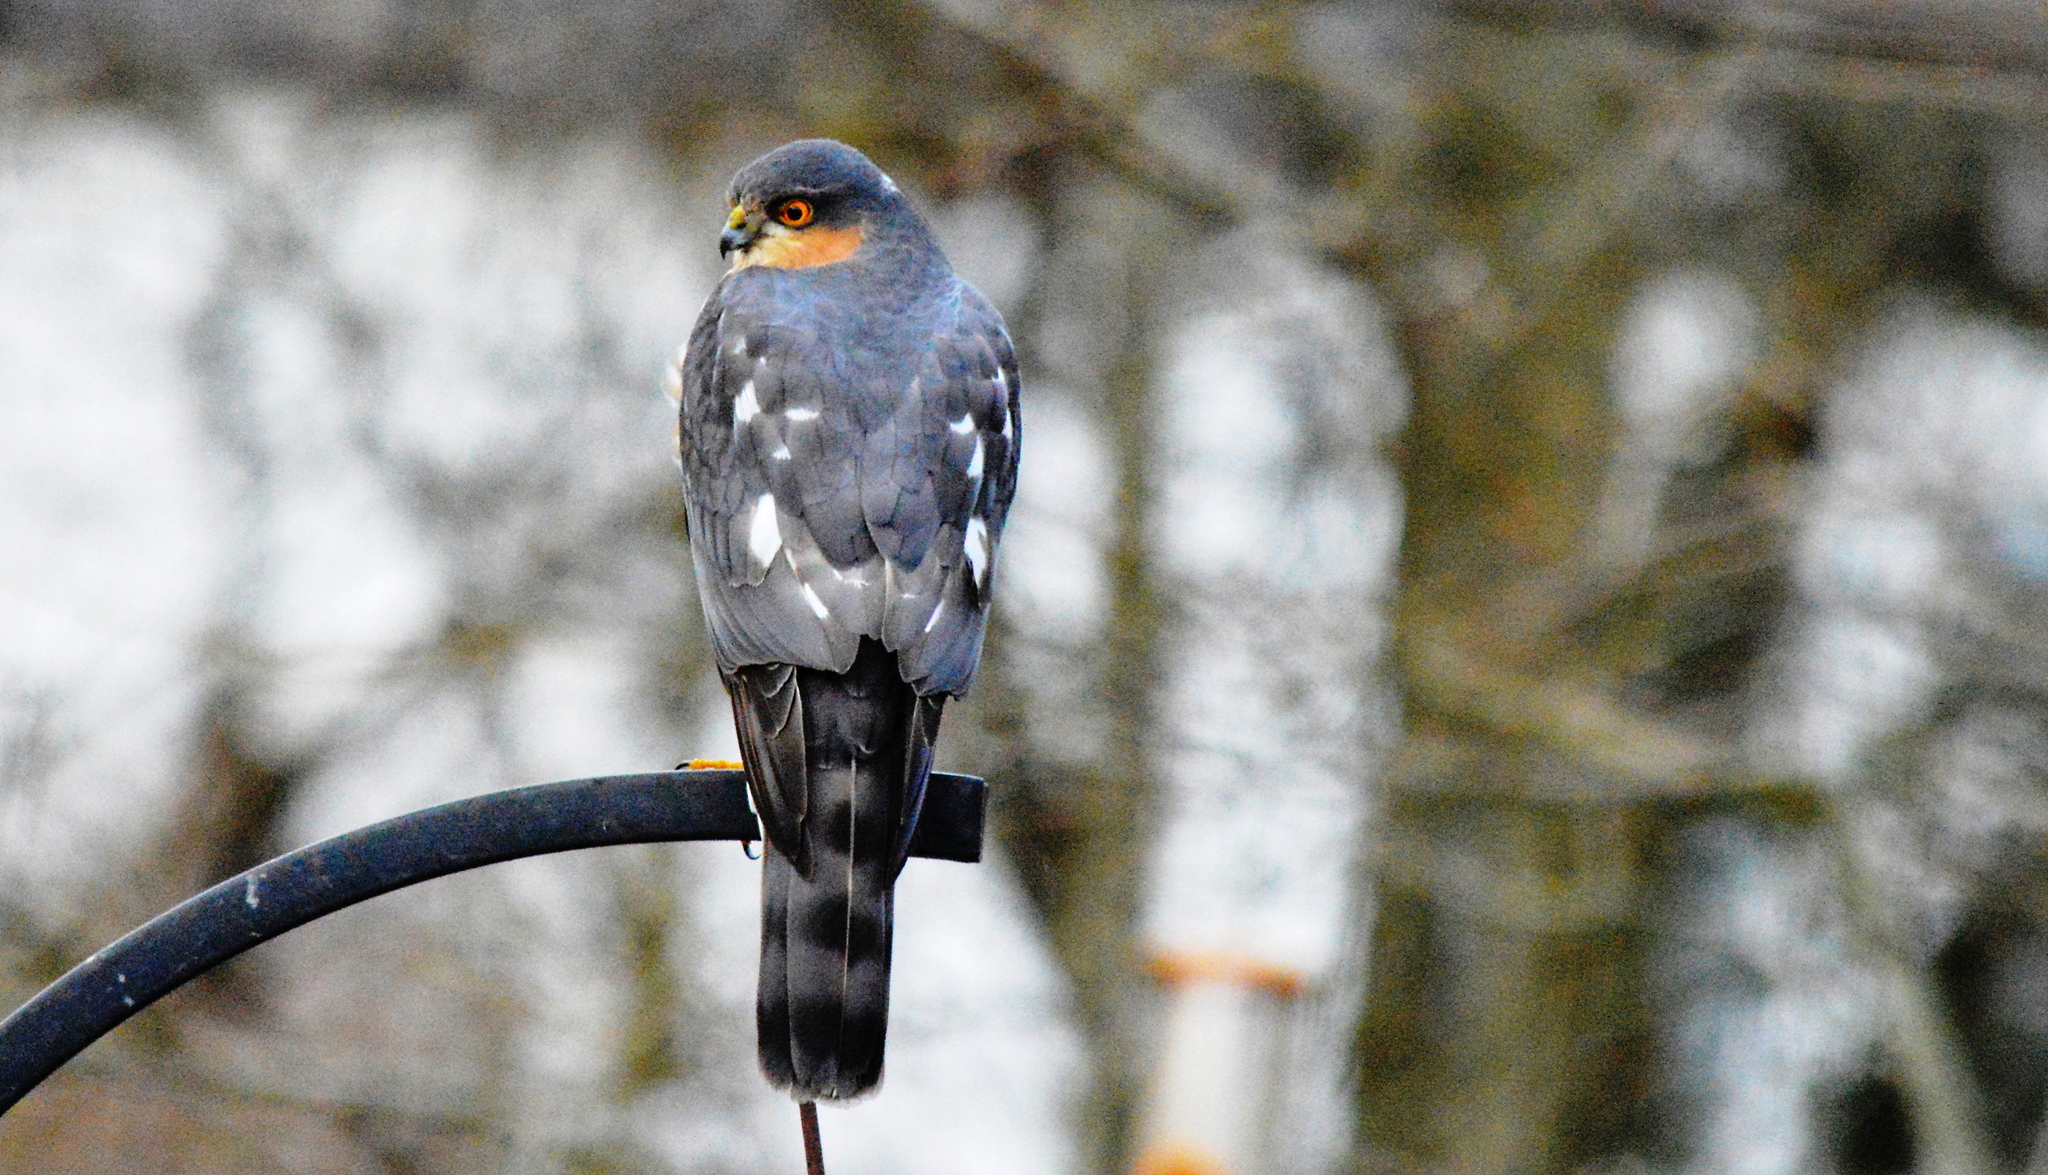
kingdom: Animalia
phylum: Chordata
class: Aves
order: Accipitriformes
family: Accipitridae
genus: Accipiter
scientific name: Accipiter nisus
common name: Eurasian sparrowhawk
